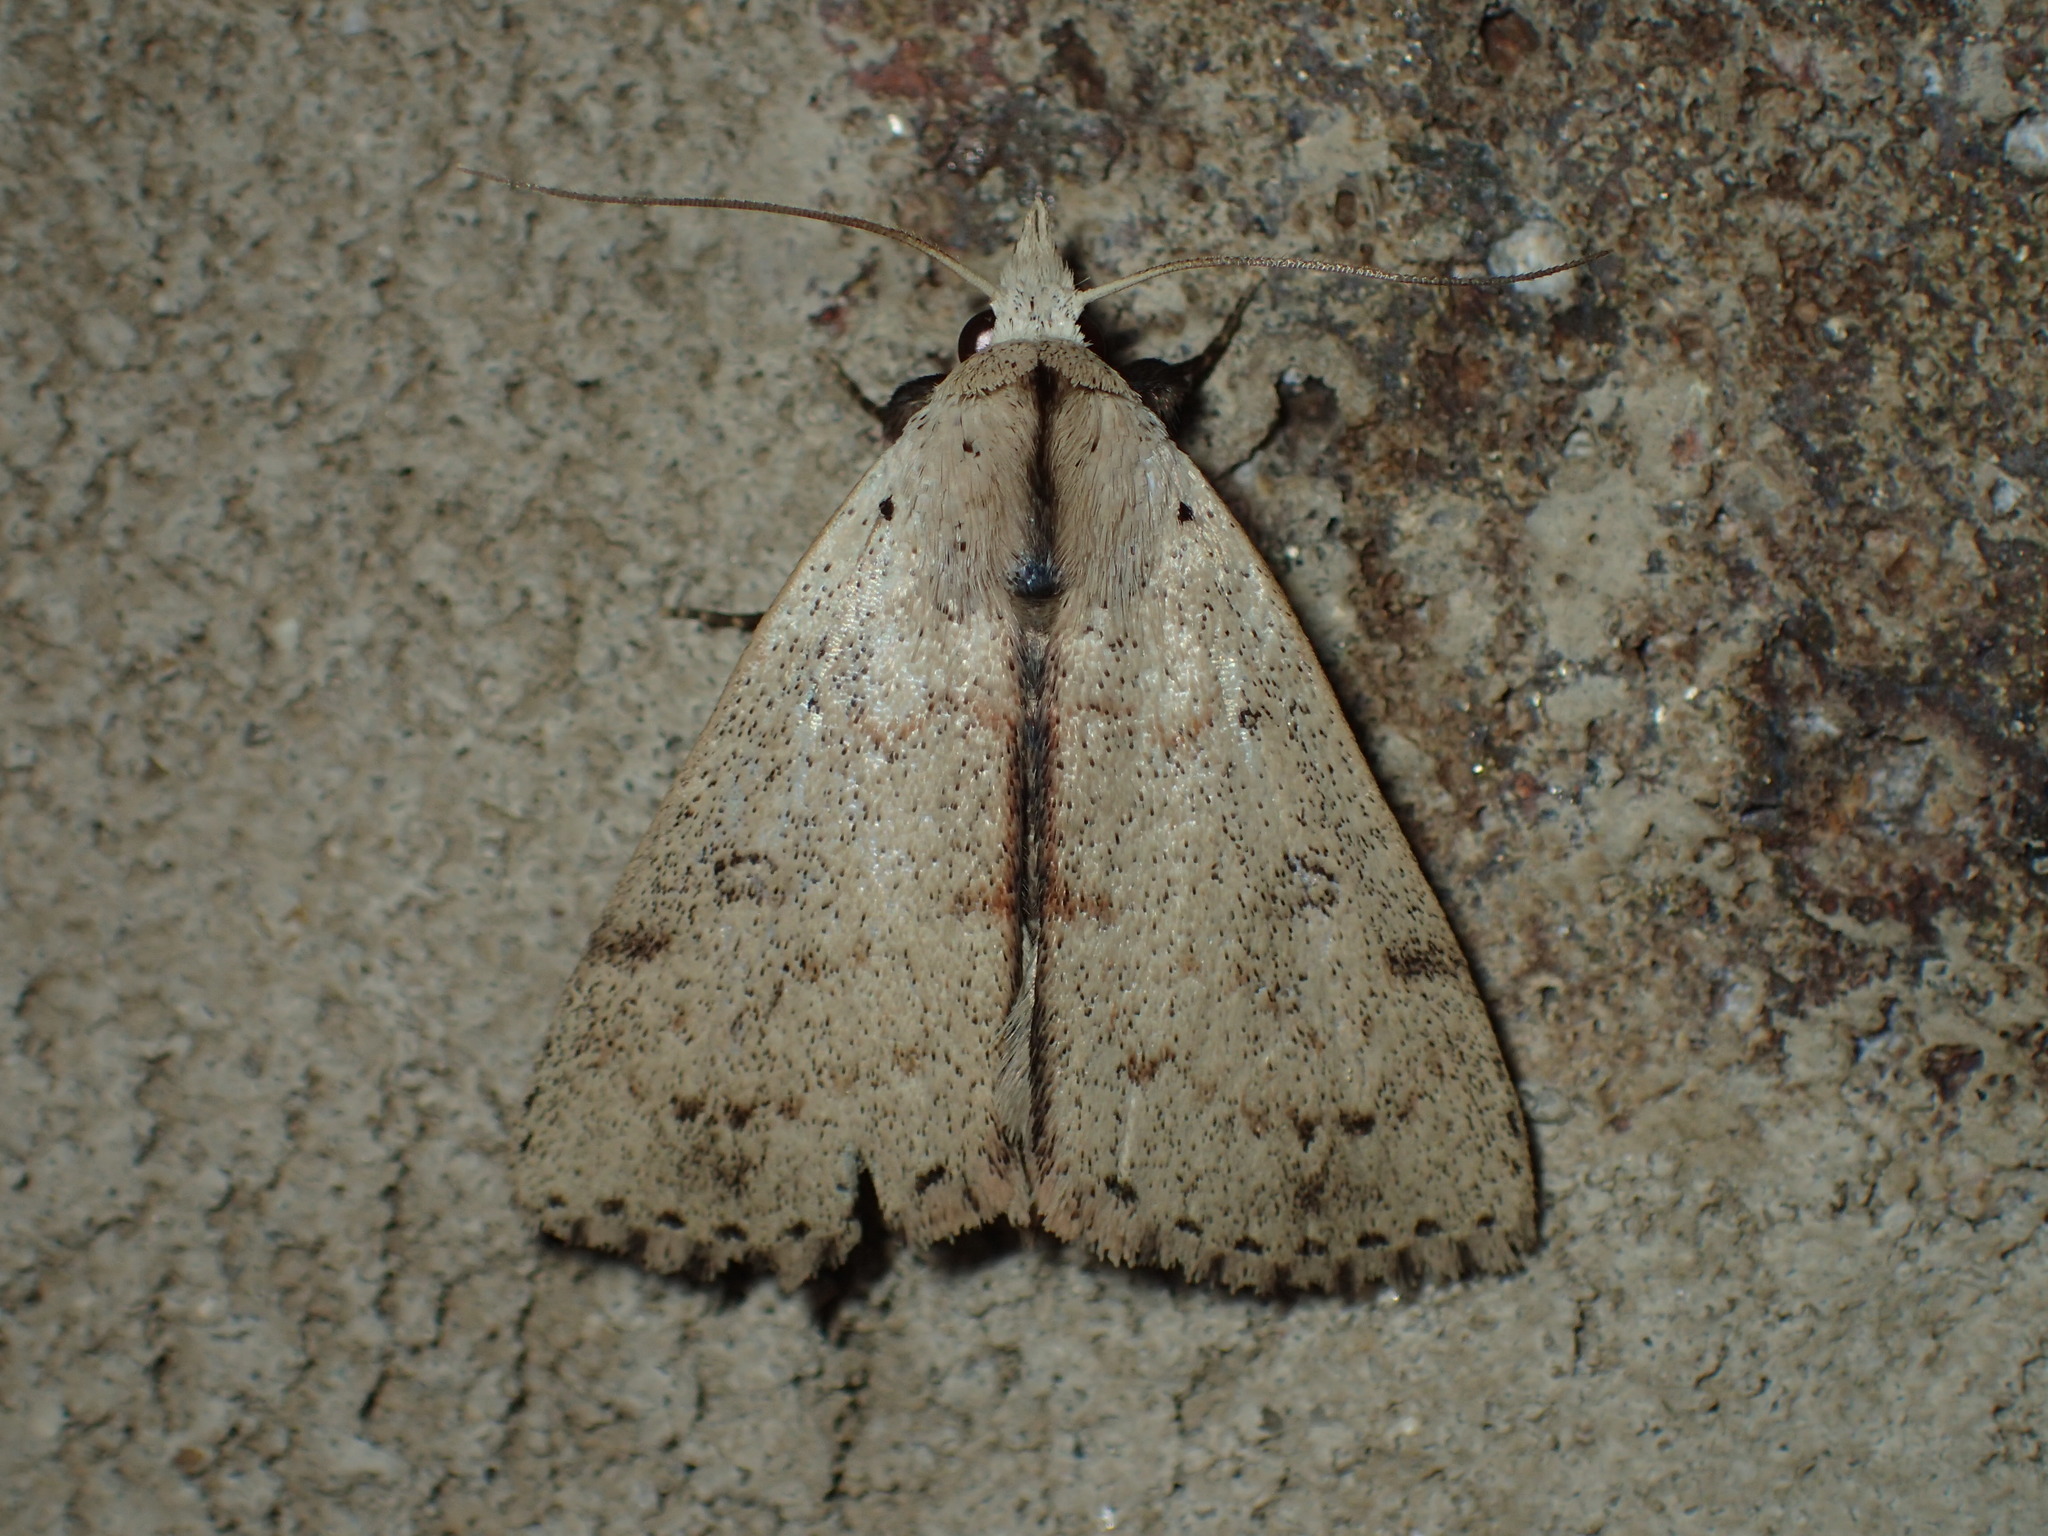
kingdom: Animalia
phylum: Arthropoda
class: Insecta
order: Lepidoptera
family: Erebidae
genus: Scolecocampa
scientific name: Scolecocampa liburna
